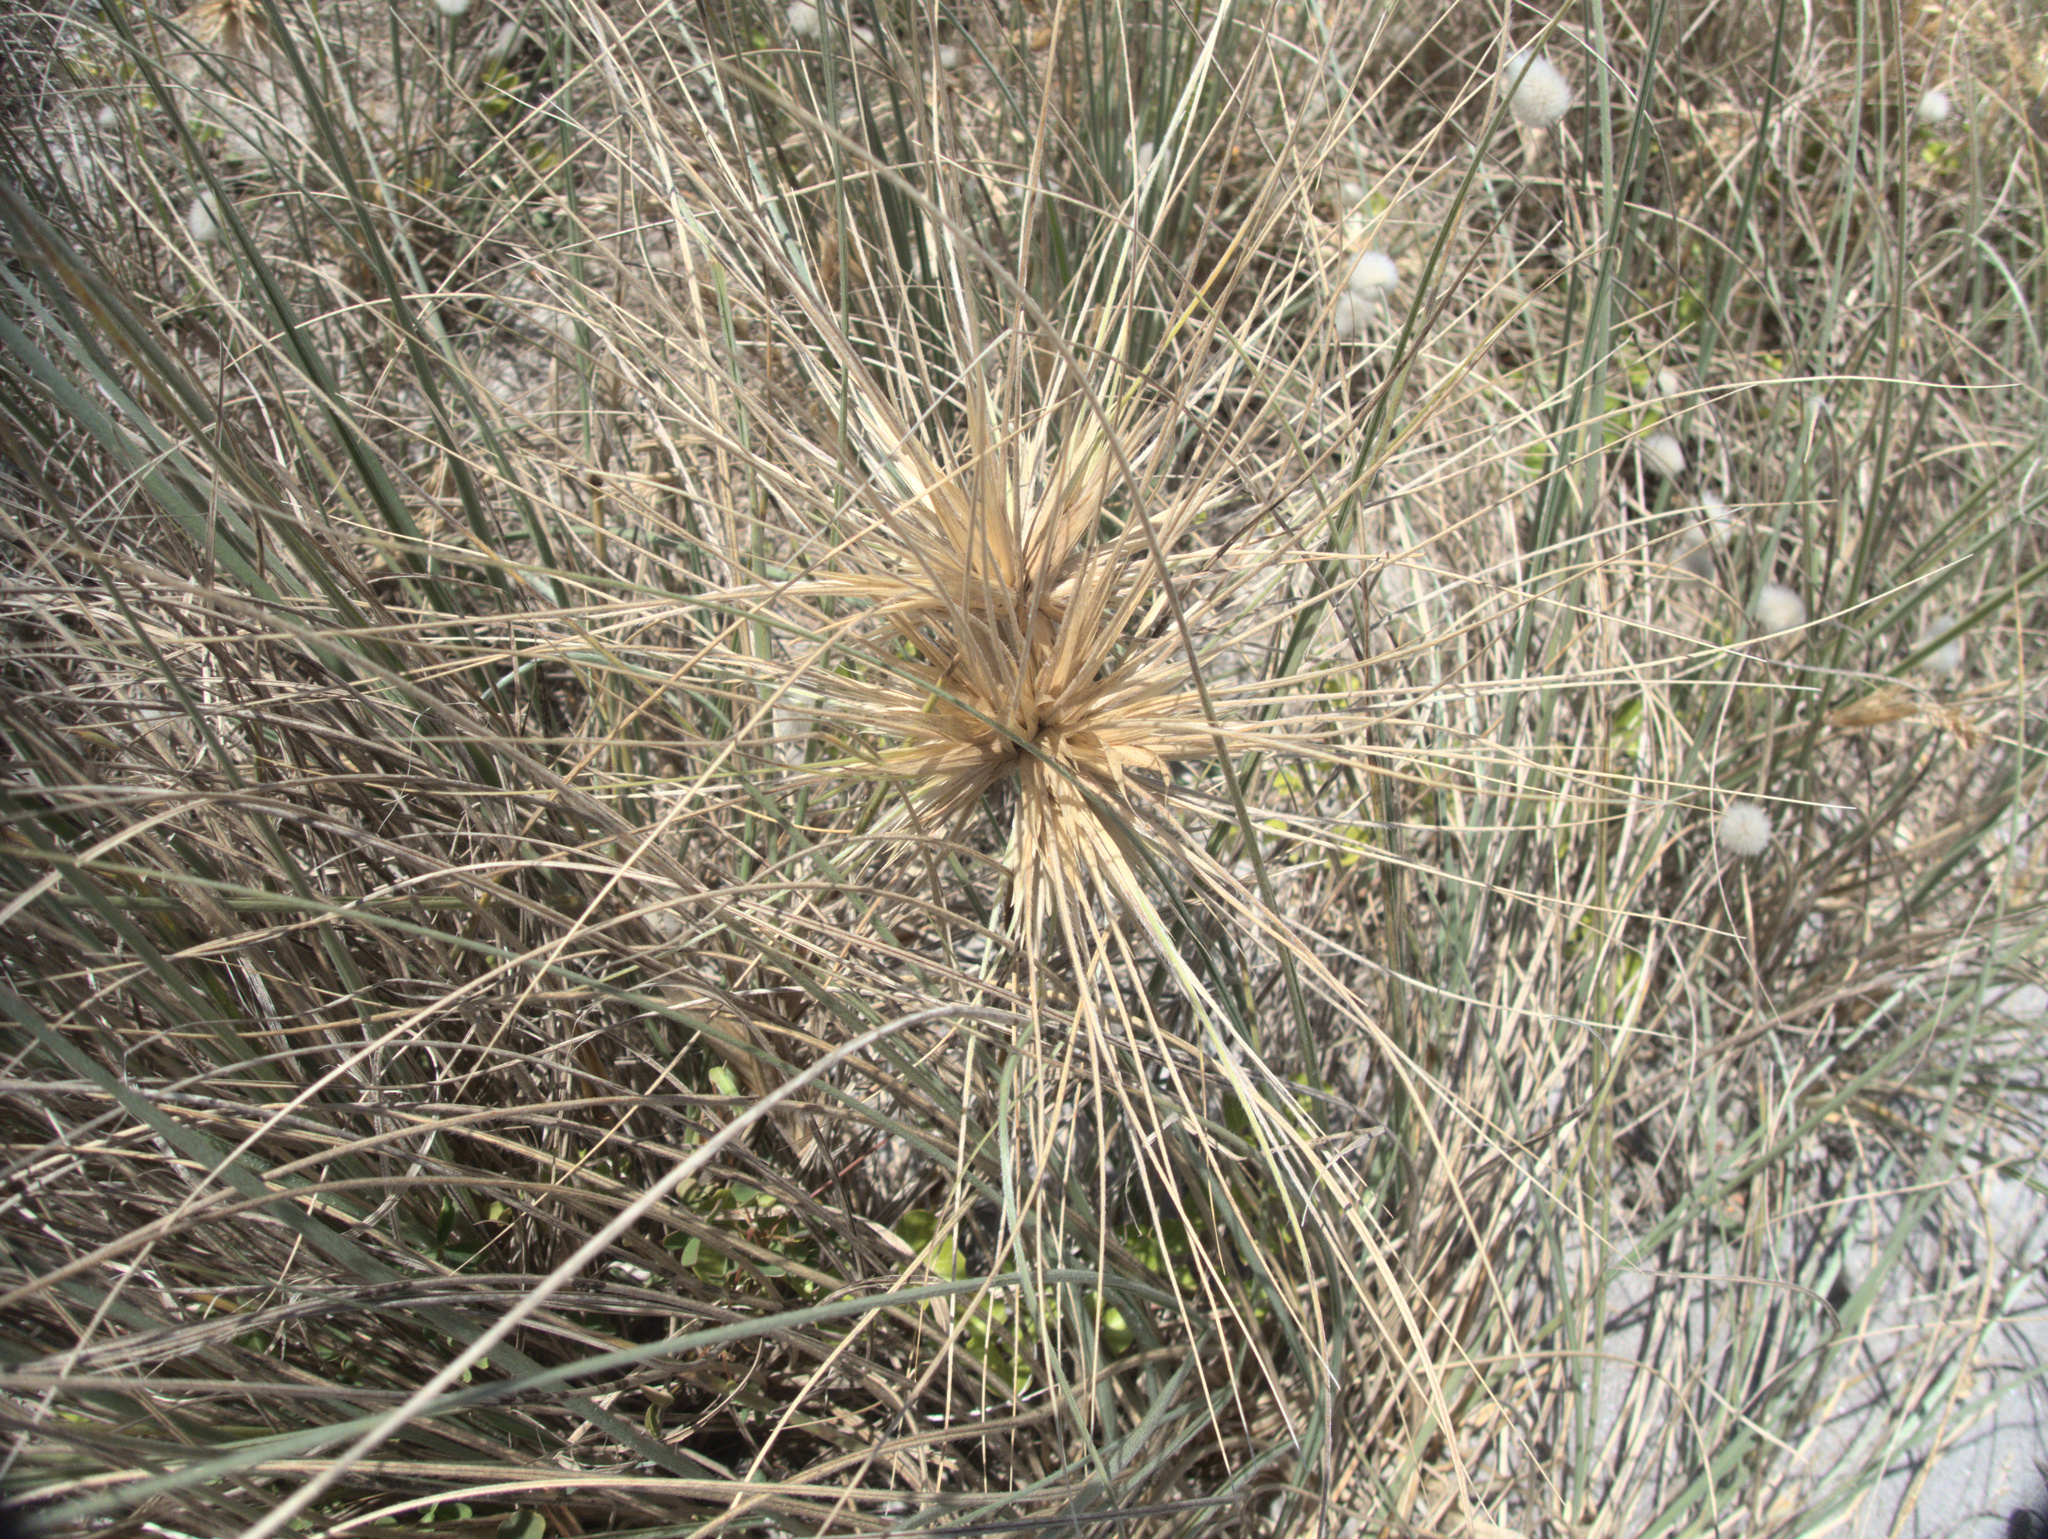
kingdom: Plantae
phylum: Tracheophyta
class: Liliopsida
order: Poales
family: Poaceae
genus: Spinifex
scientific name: Spinifex sericeus
